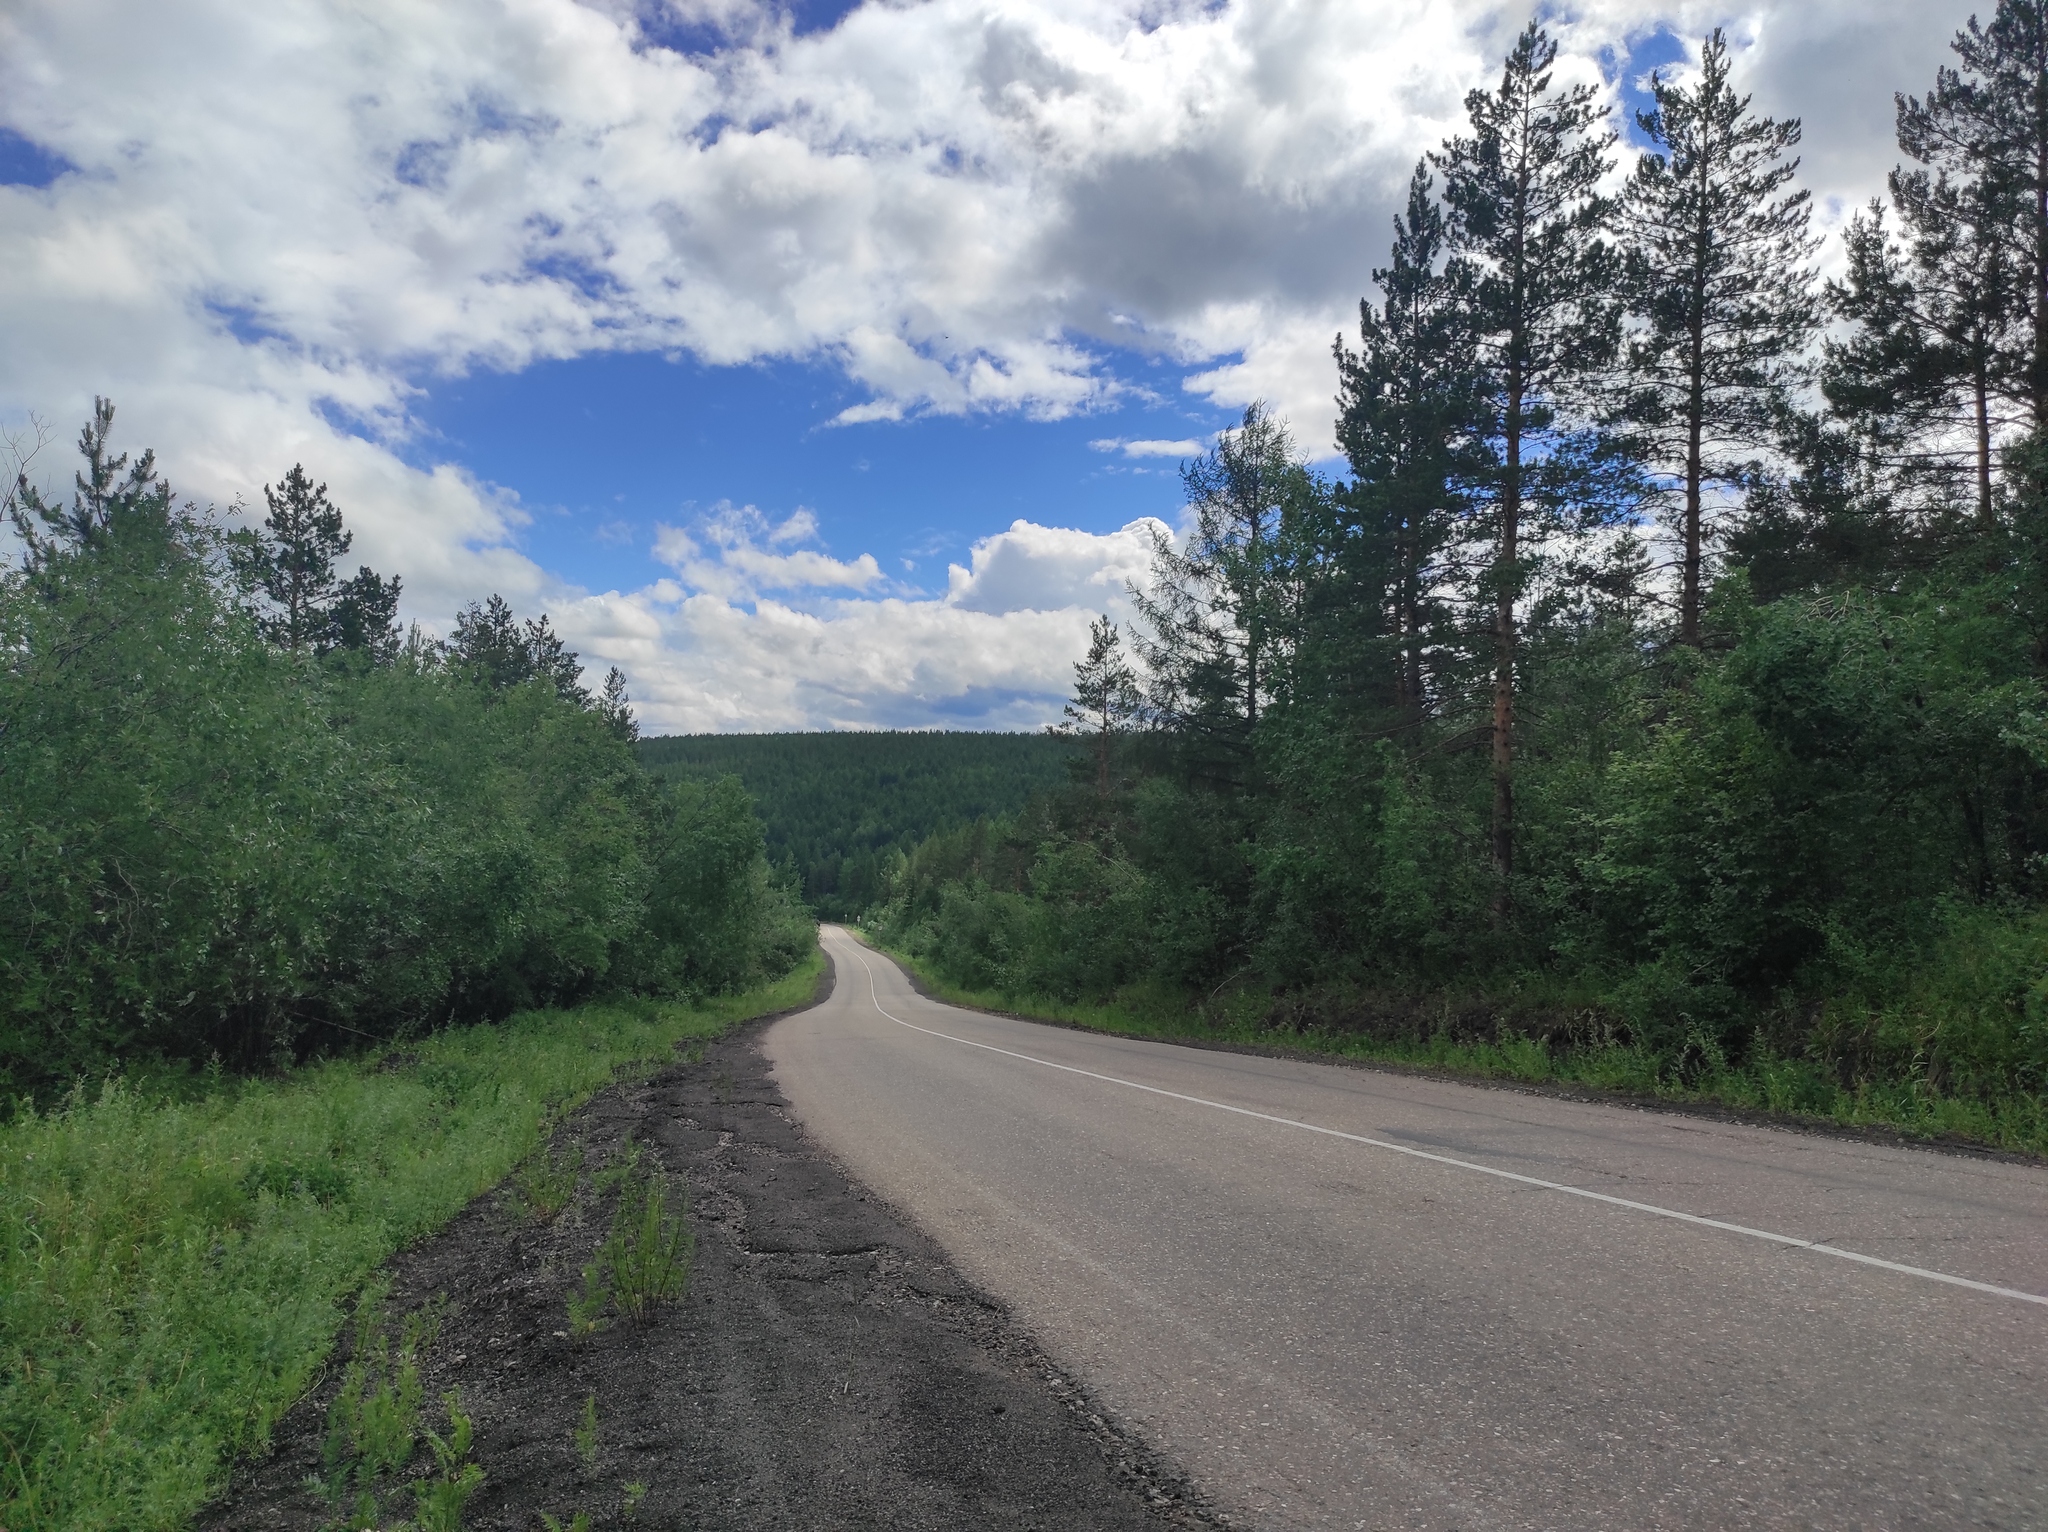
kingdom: Plantae
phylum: Tracheophyta
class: Pinopsida
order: Pinales
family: Pinaceae
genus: Pinus
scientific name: Pinus sylvestris
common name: Scots pine
